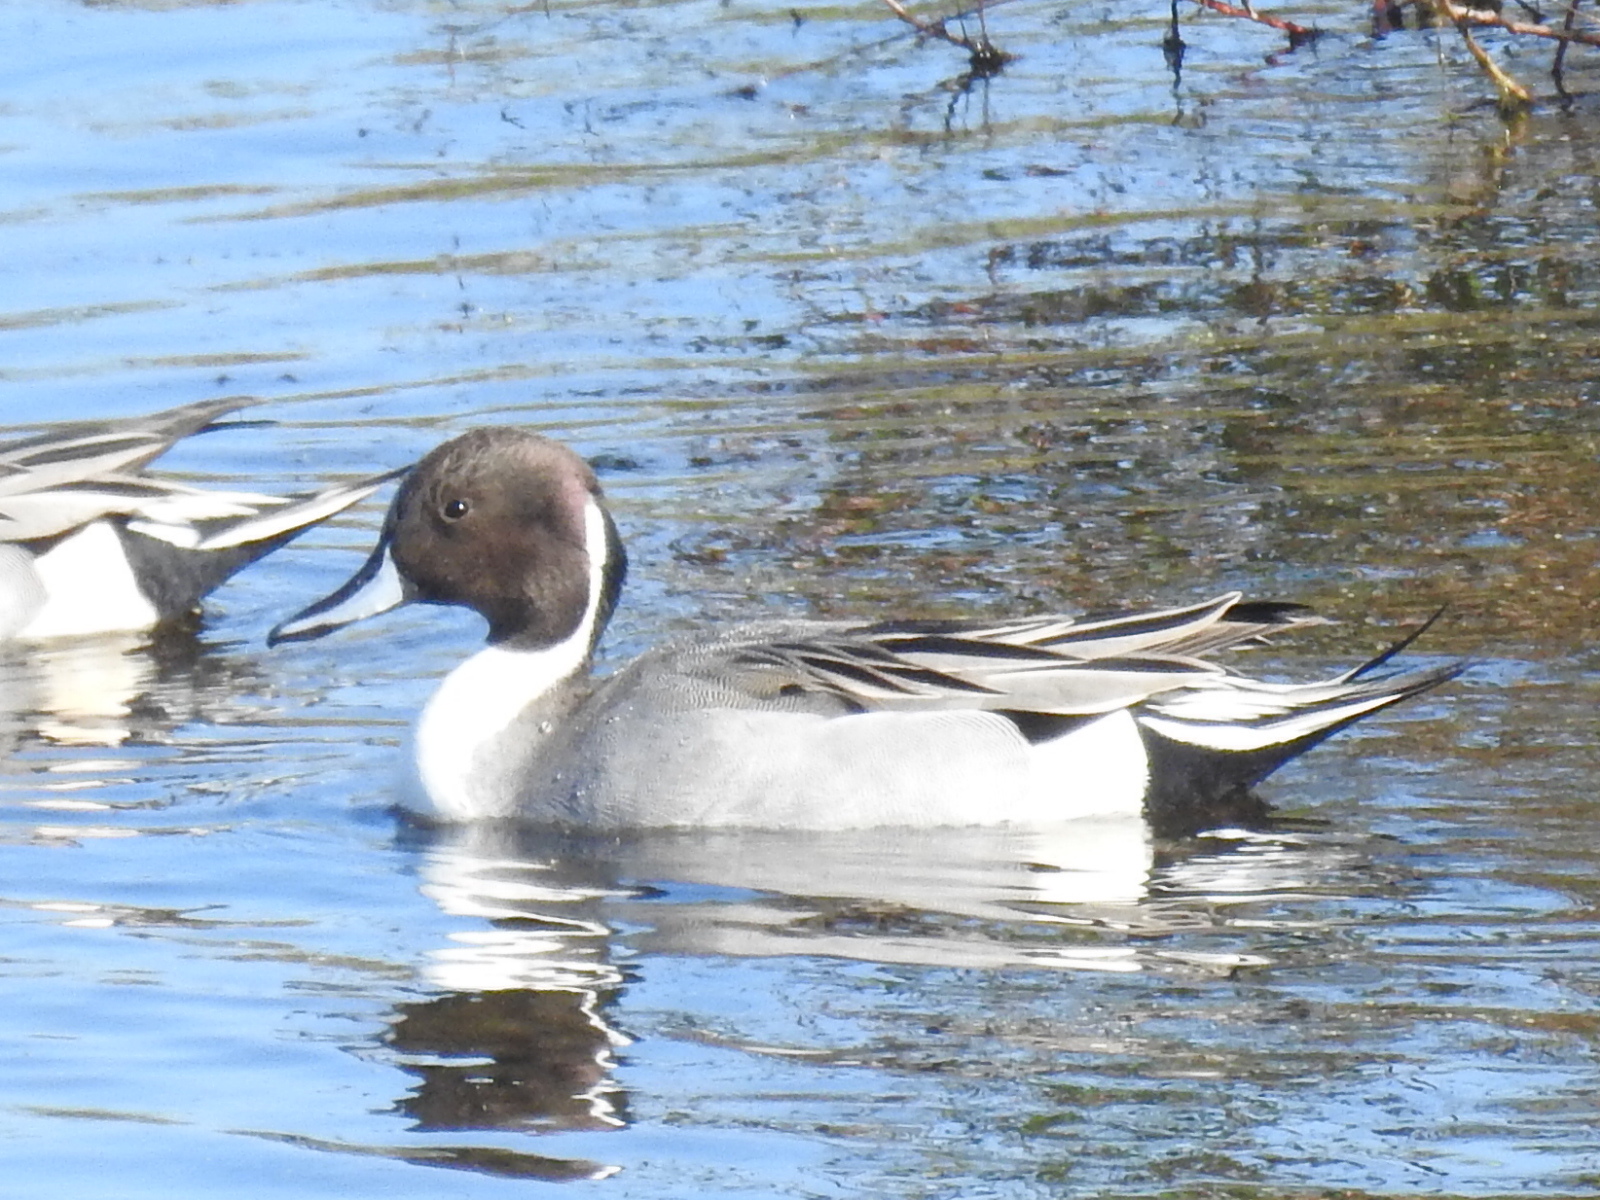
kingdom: Animalia
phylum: Chordata
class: Aves
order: Anseriformes
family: Anatidae
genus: Anas
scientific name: Anas acuta
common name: Northern pintail
